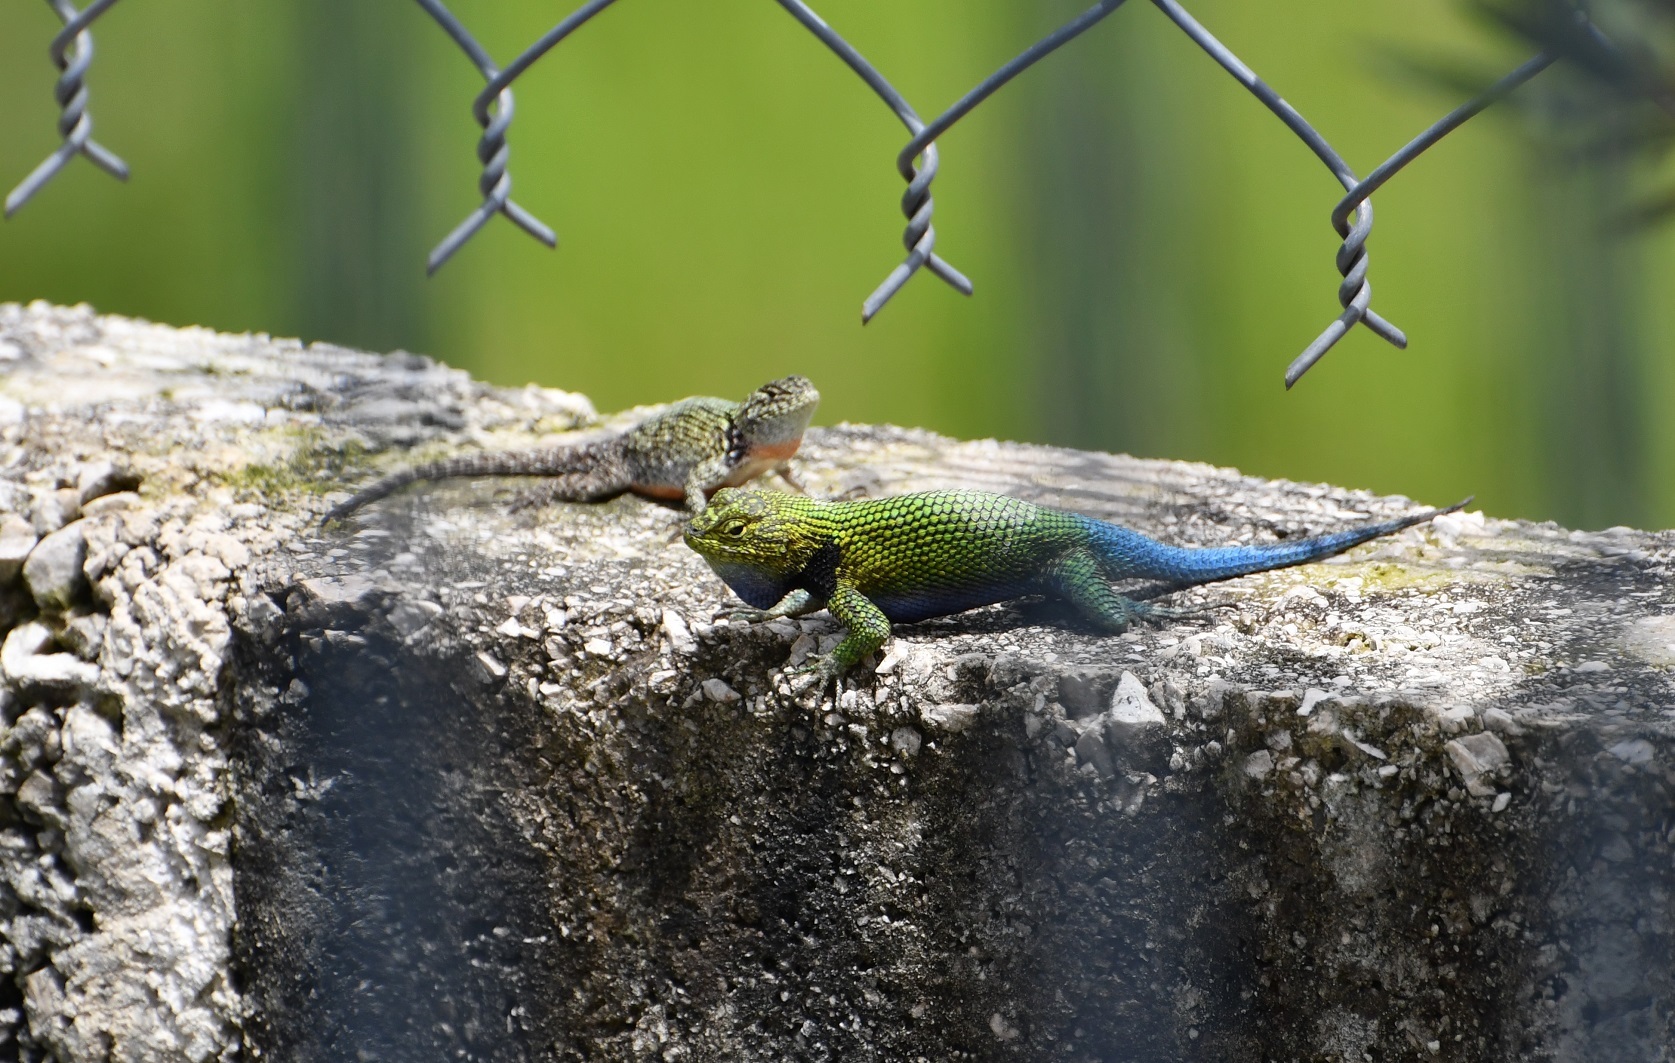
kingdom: Animalia
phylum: Chordata
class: Squamata
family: Phrynosomatidae
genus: Sceloporus
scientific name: Sceloporus taeniocnemis
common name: Guatemalan emerald spiny lizard
